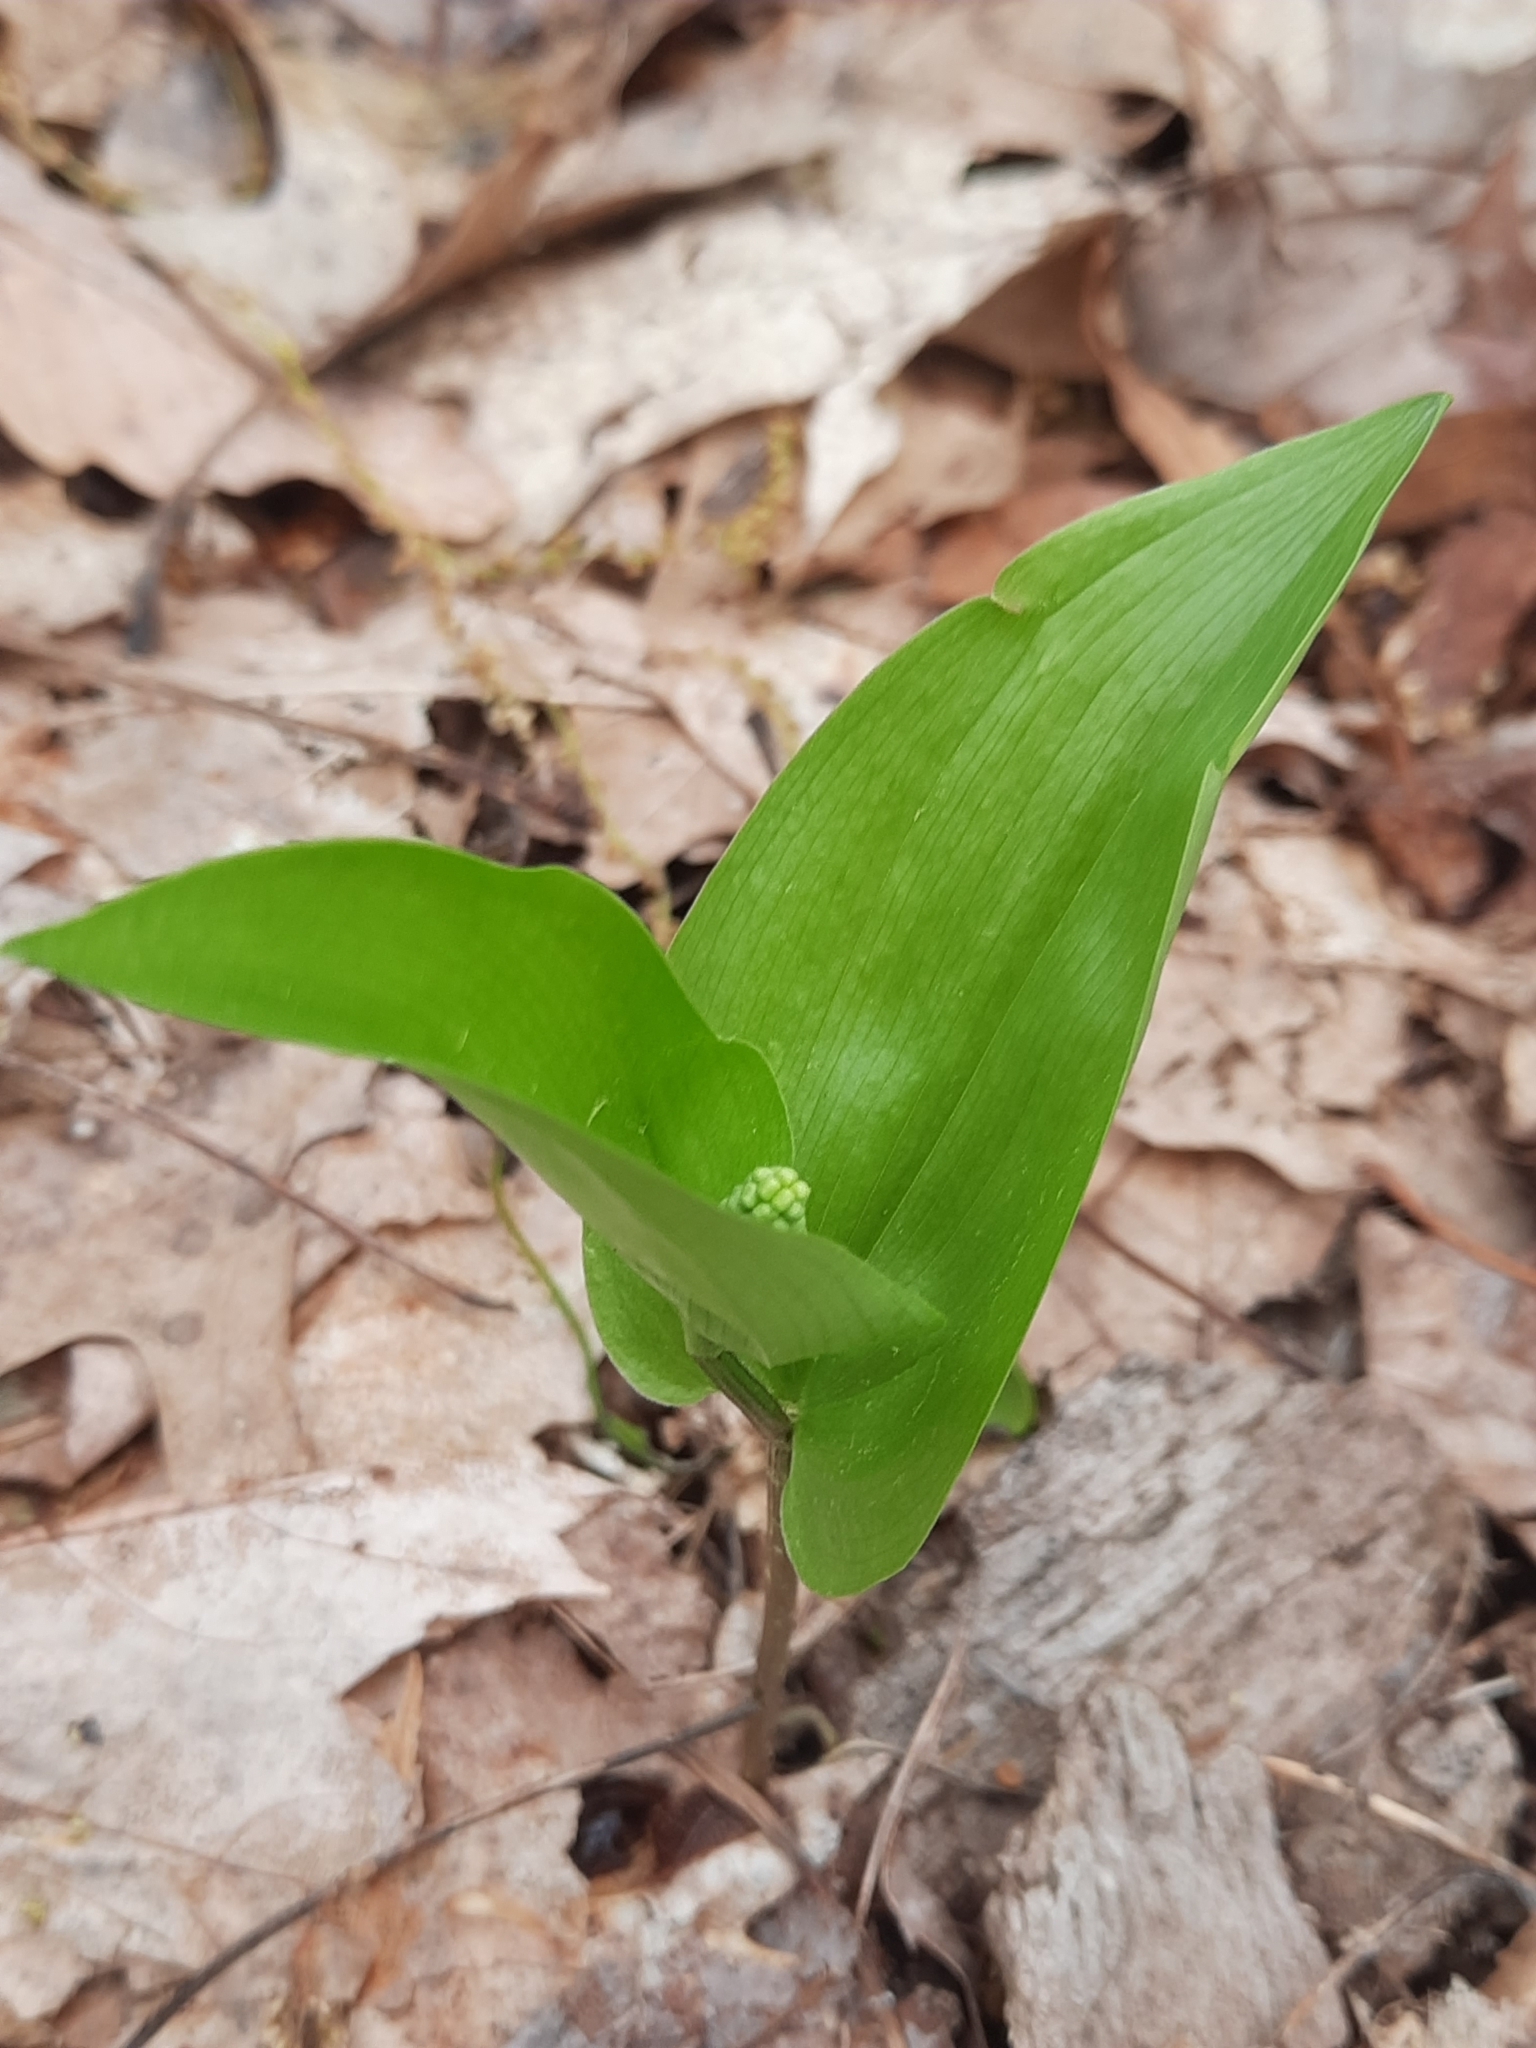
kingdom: Plantae
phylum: Tracheophyta
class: Liliopsida
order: Asparagales
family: Asparagaceae
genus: Maianthemum
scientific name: Maianthemum canadense
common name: False lily-of-the-valley
